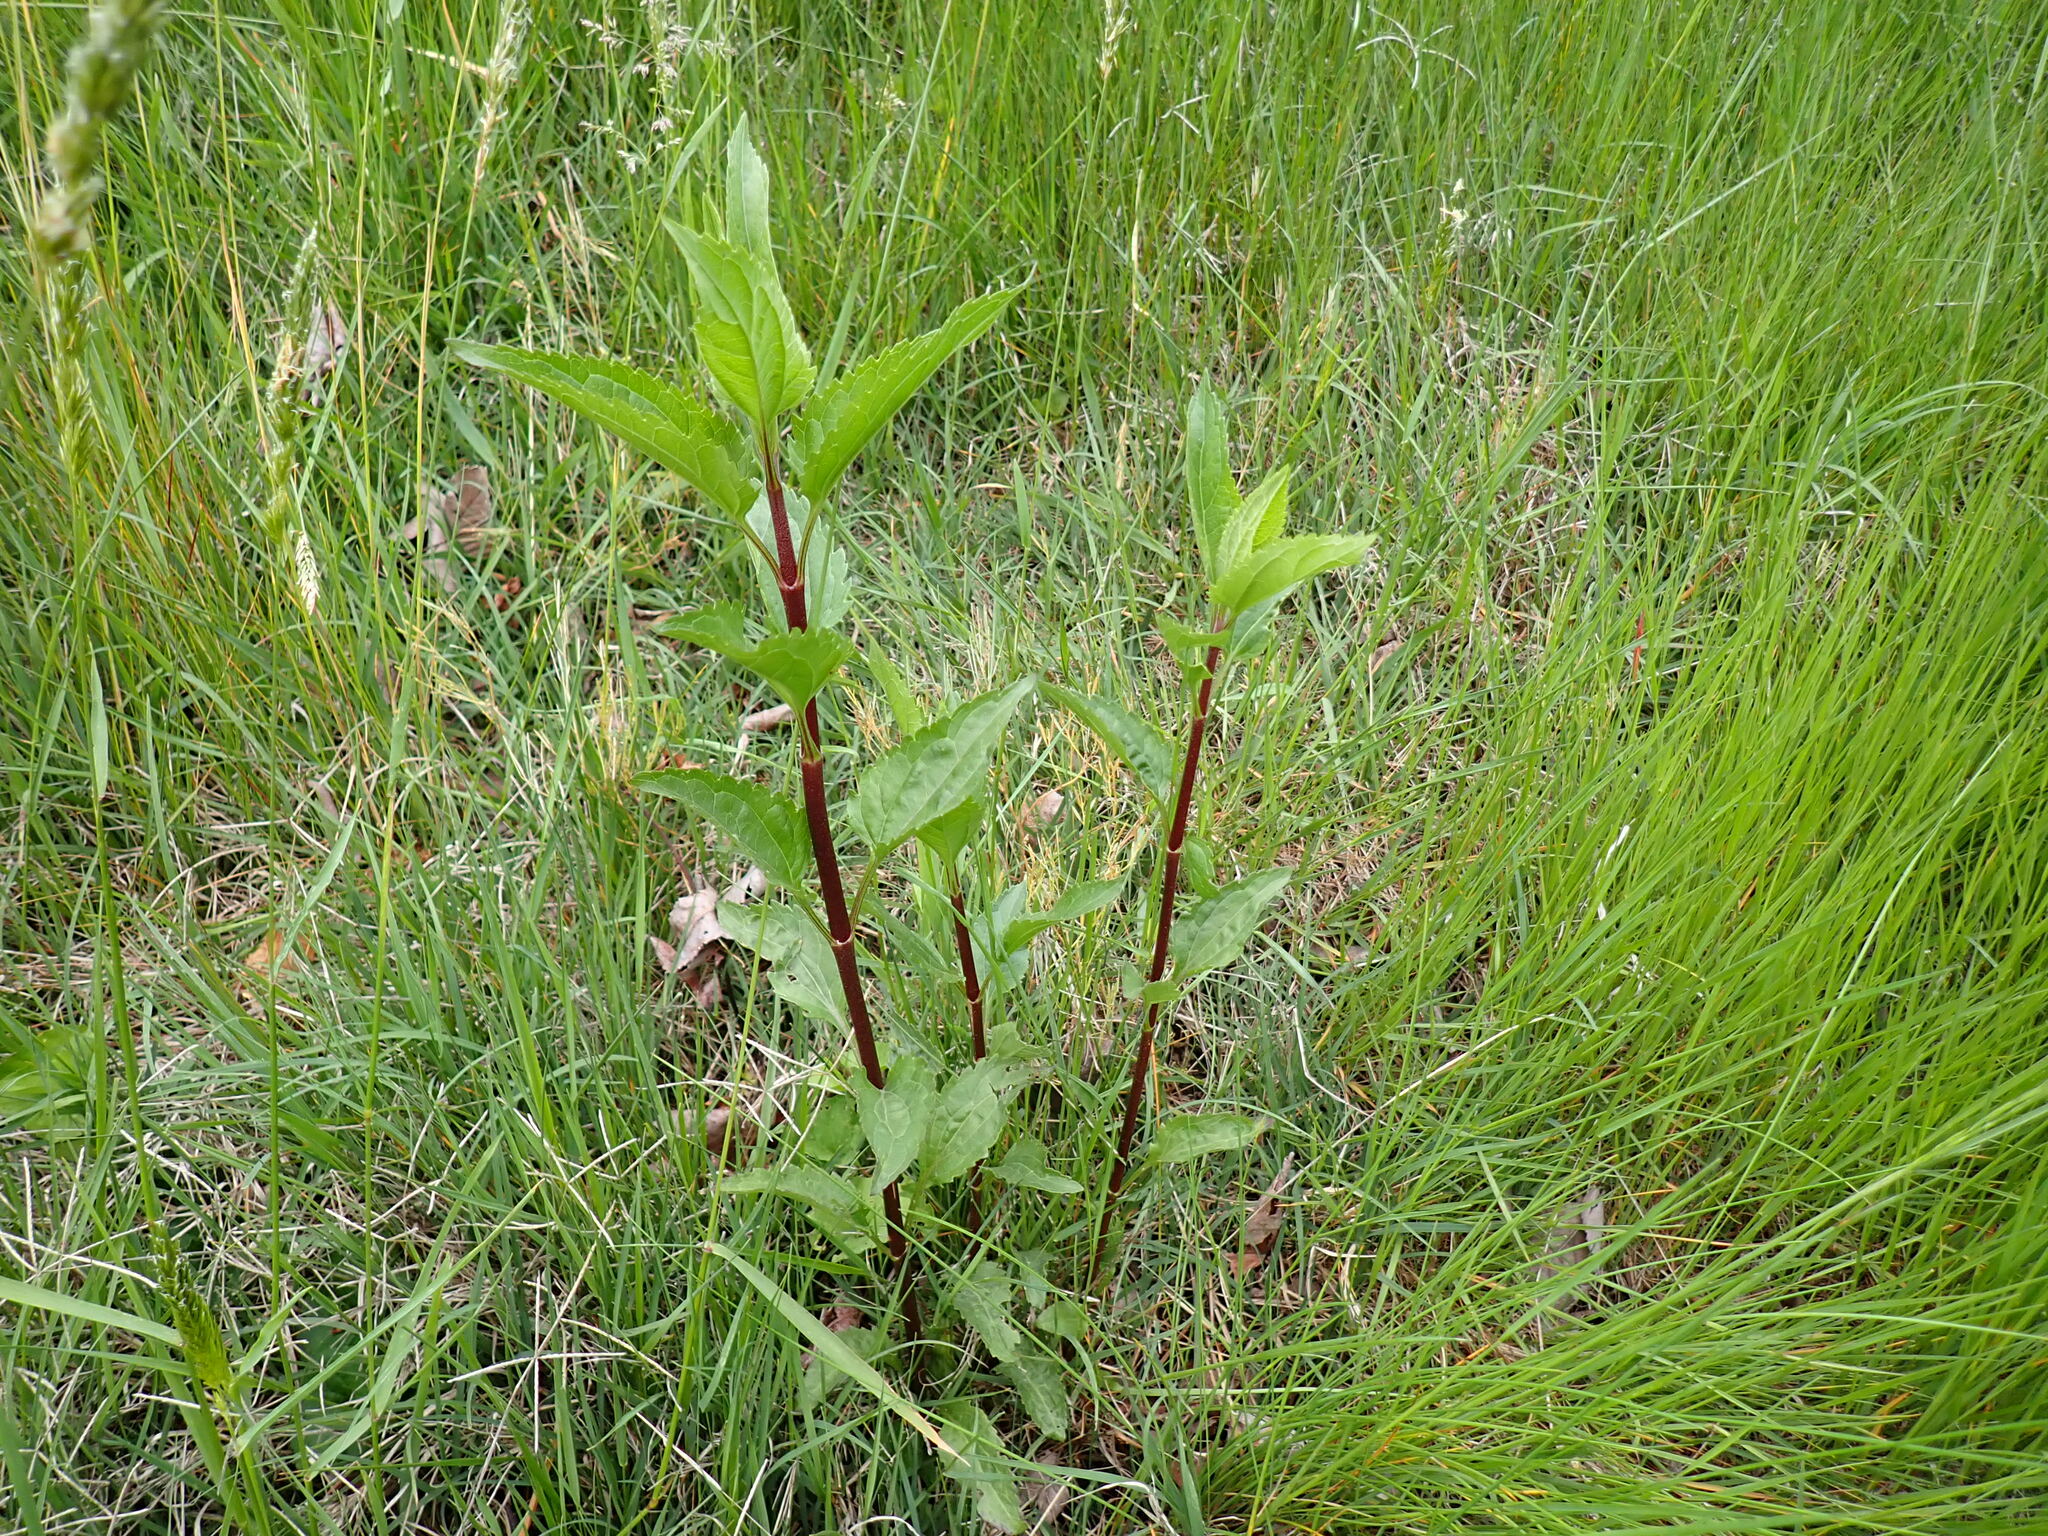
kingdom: Plantae
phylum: Tracheophyta
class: Magnoliopsida
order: Asterales
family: Asteraceae
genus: Eupatorium
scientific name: Eupatorium serotinum
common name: Late boneset
